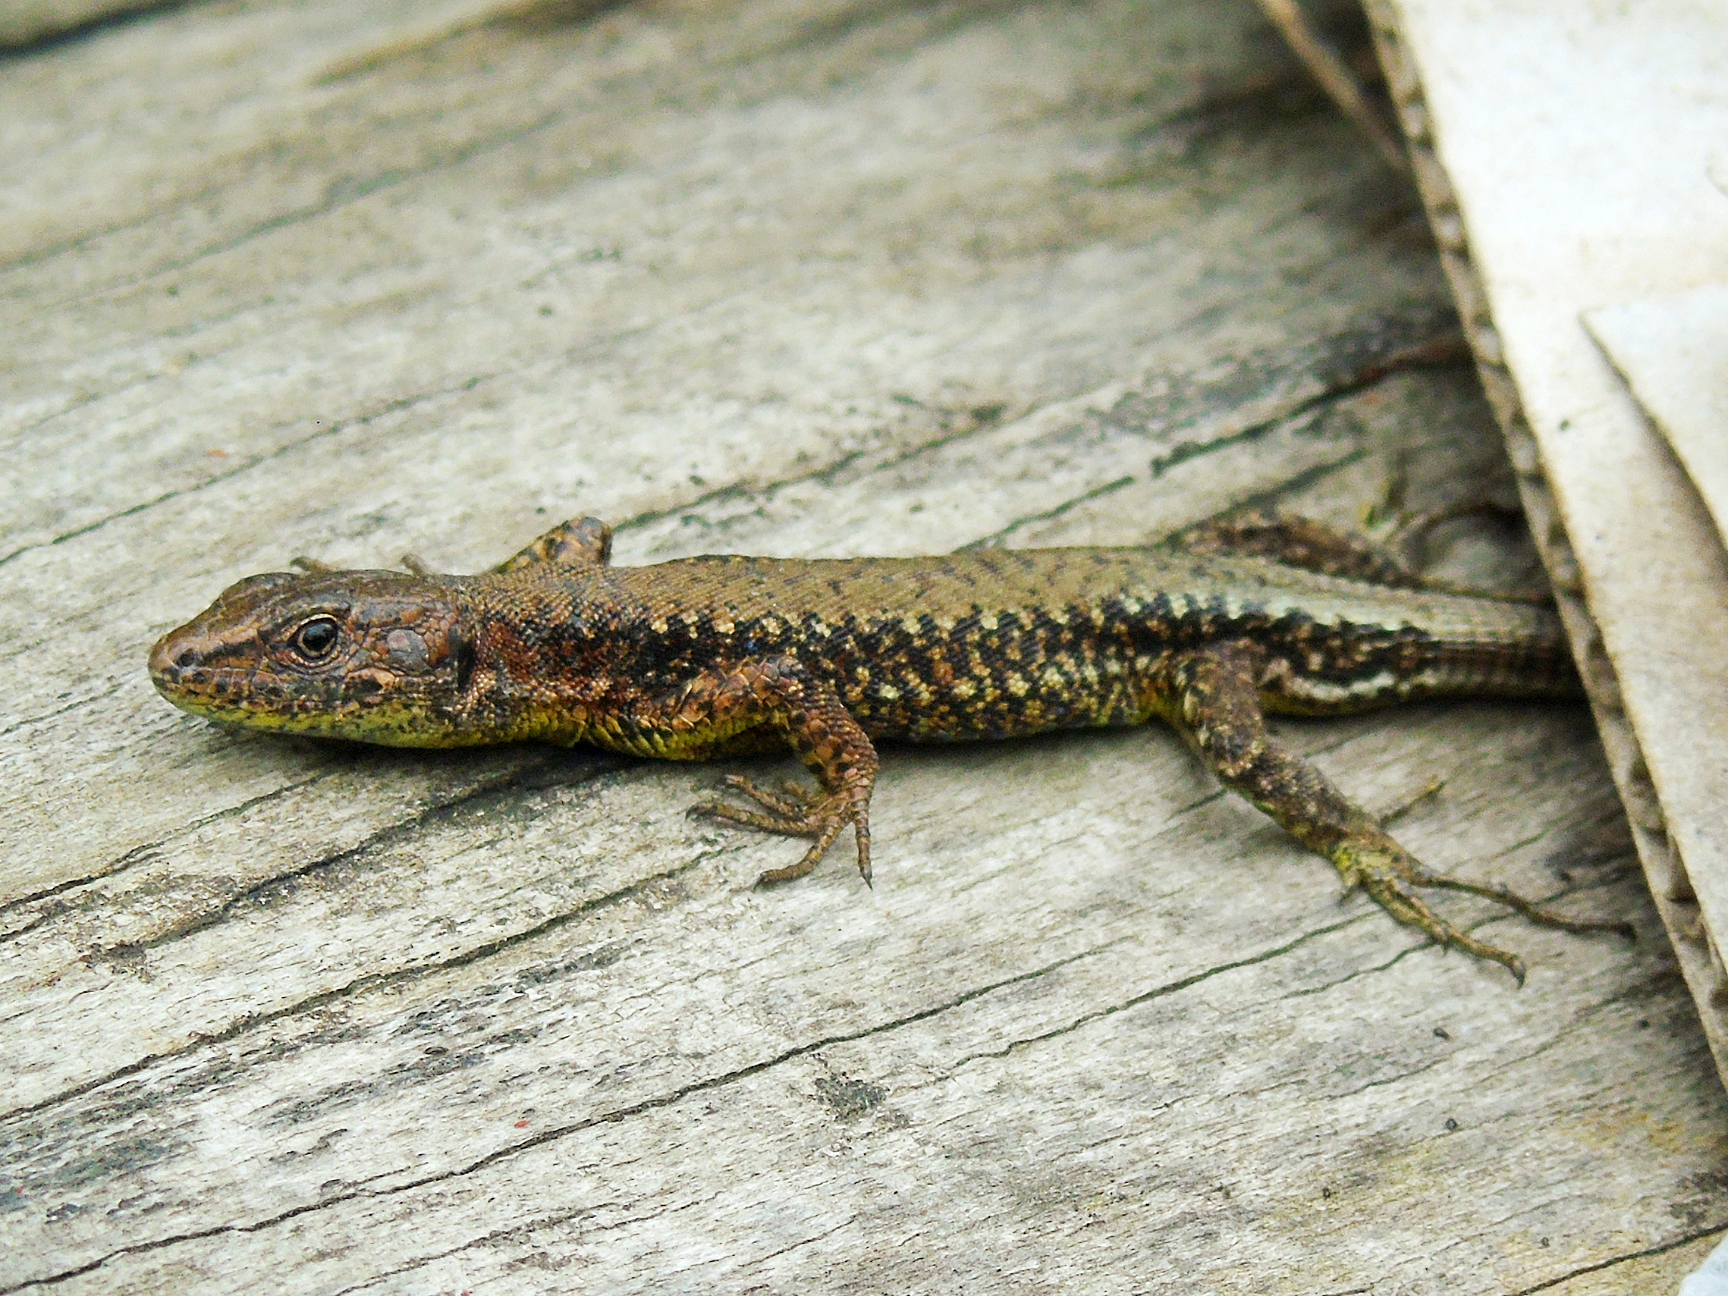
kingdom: Animalia
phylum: Chordata
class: Squamata
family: Lacertidae
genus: Darevskia
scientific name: Darevskia derjugini
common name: Derjugin's lizard
